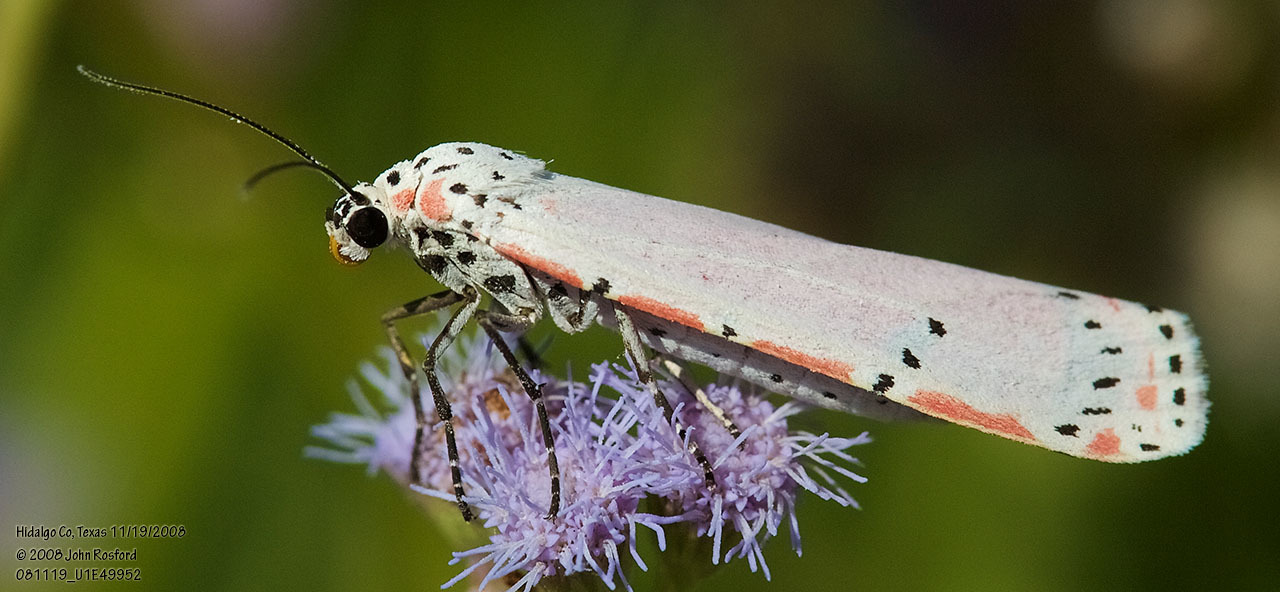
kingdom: Animalia
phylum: Arthropoda
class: Insecta
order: Lepidoptera
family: Erebidae
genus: Utetheisa
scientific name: Utetheisa ornatrix
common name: Beautiful utetheisa
